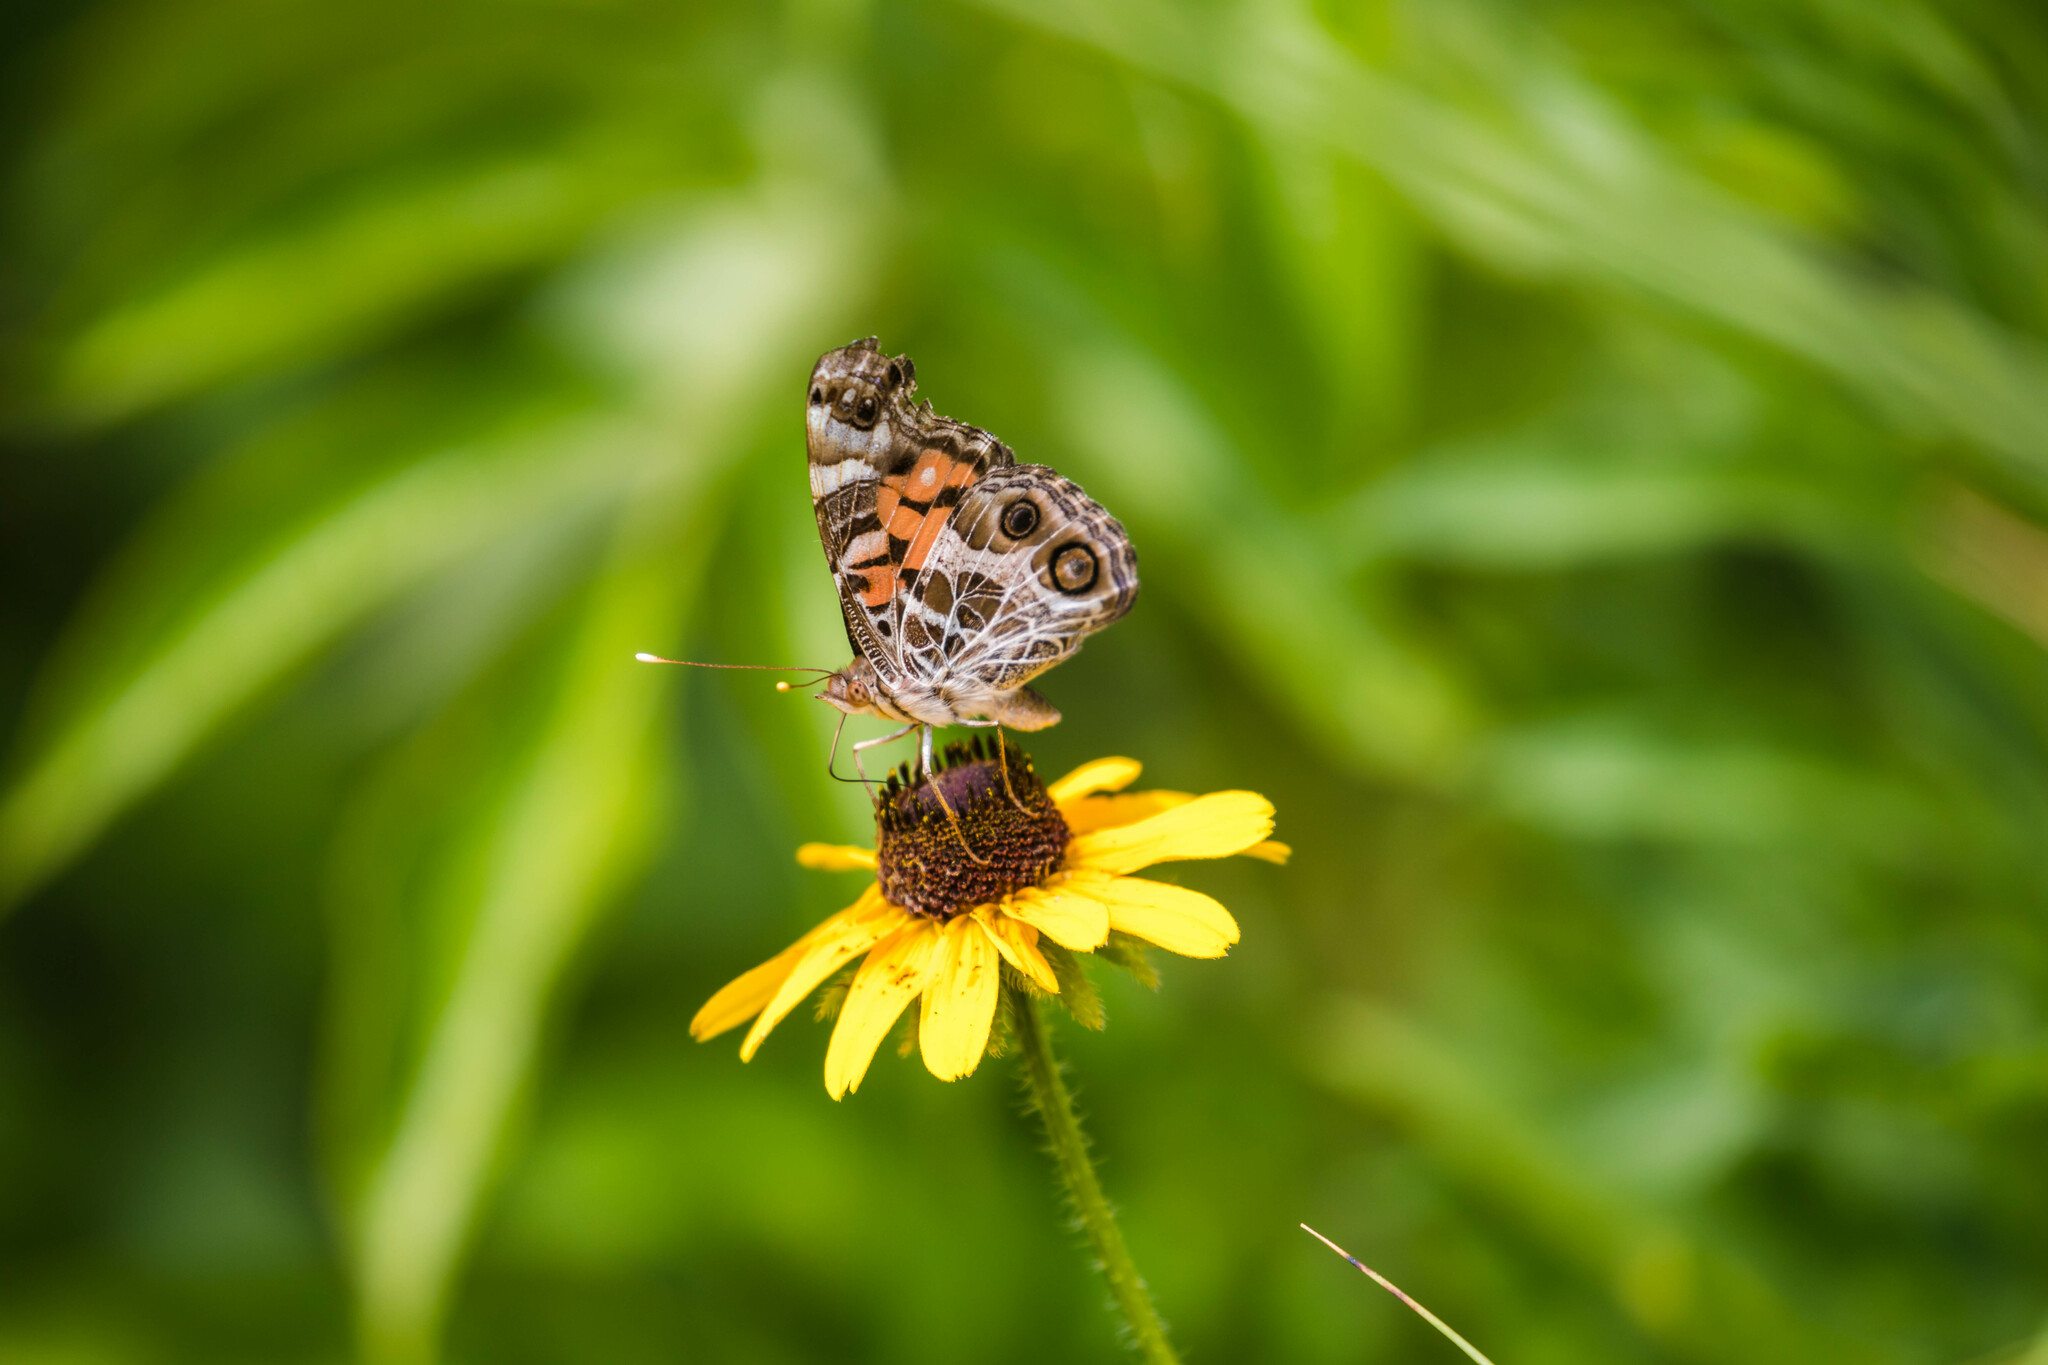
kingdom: Animalia
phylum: Arthropoda
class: Insecta
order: Lepidoptera
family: Nymphalidae
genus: Vanessa
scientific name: Vanessa virginiensis
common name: American lady
